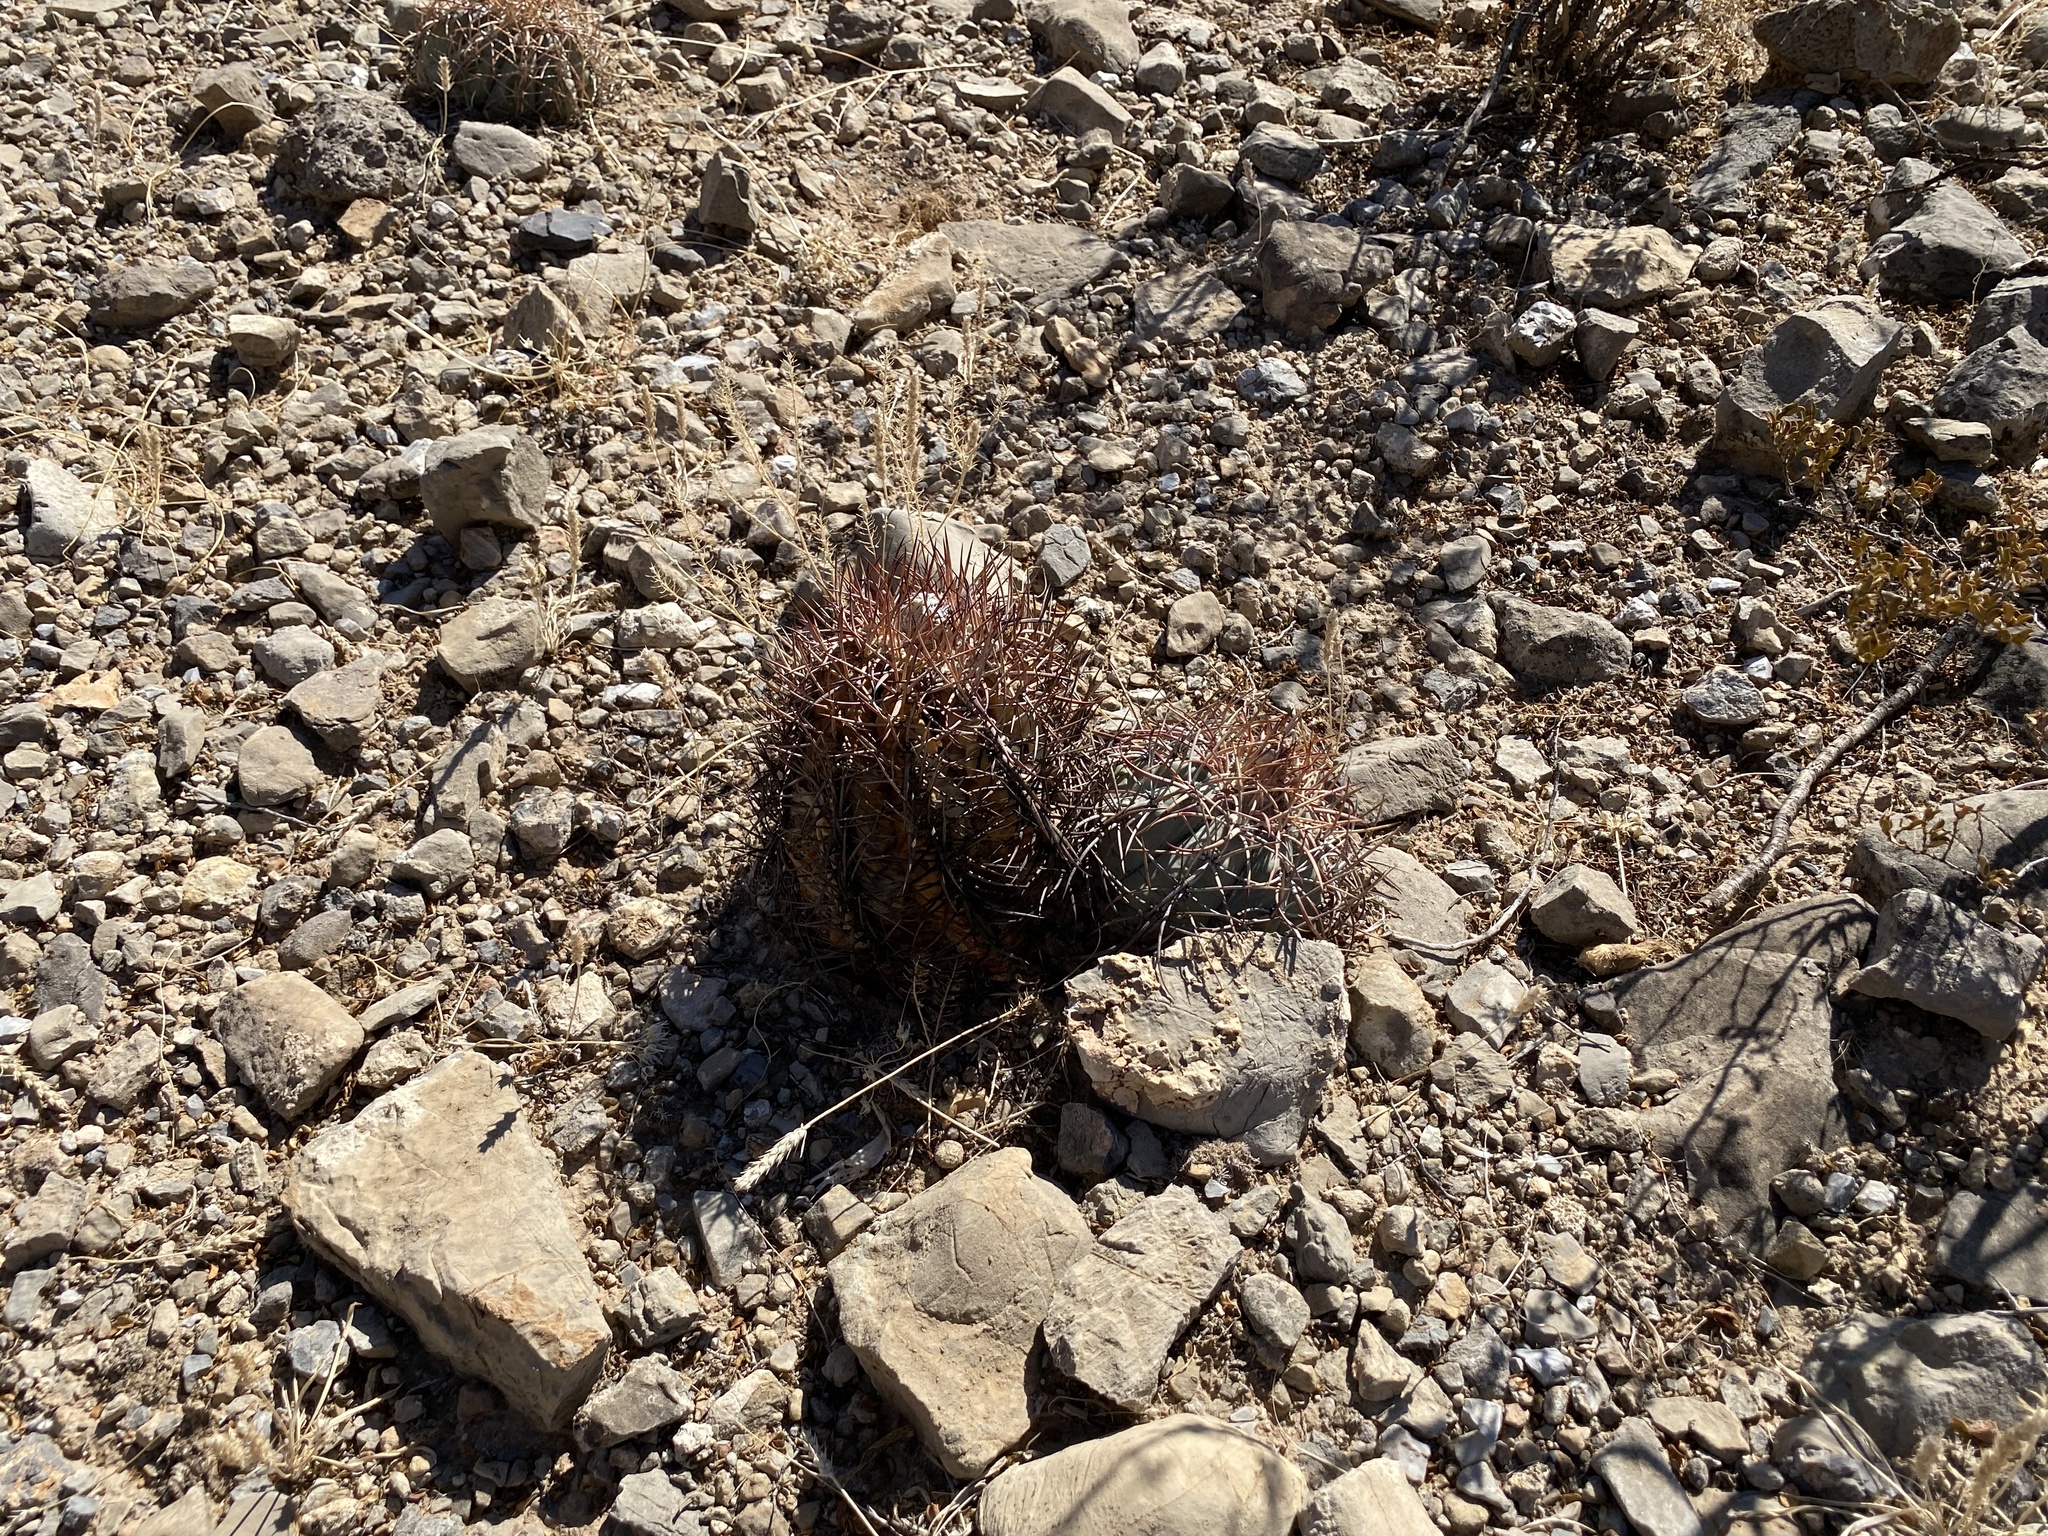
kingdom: Plantae
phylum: Tracheophyta
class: Magnoliopsida
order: Caryophyllales
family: Cactaceae
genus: Echinocactus
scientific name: Echinocactus horizonthalonius
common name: Devilshead
